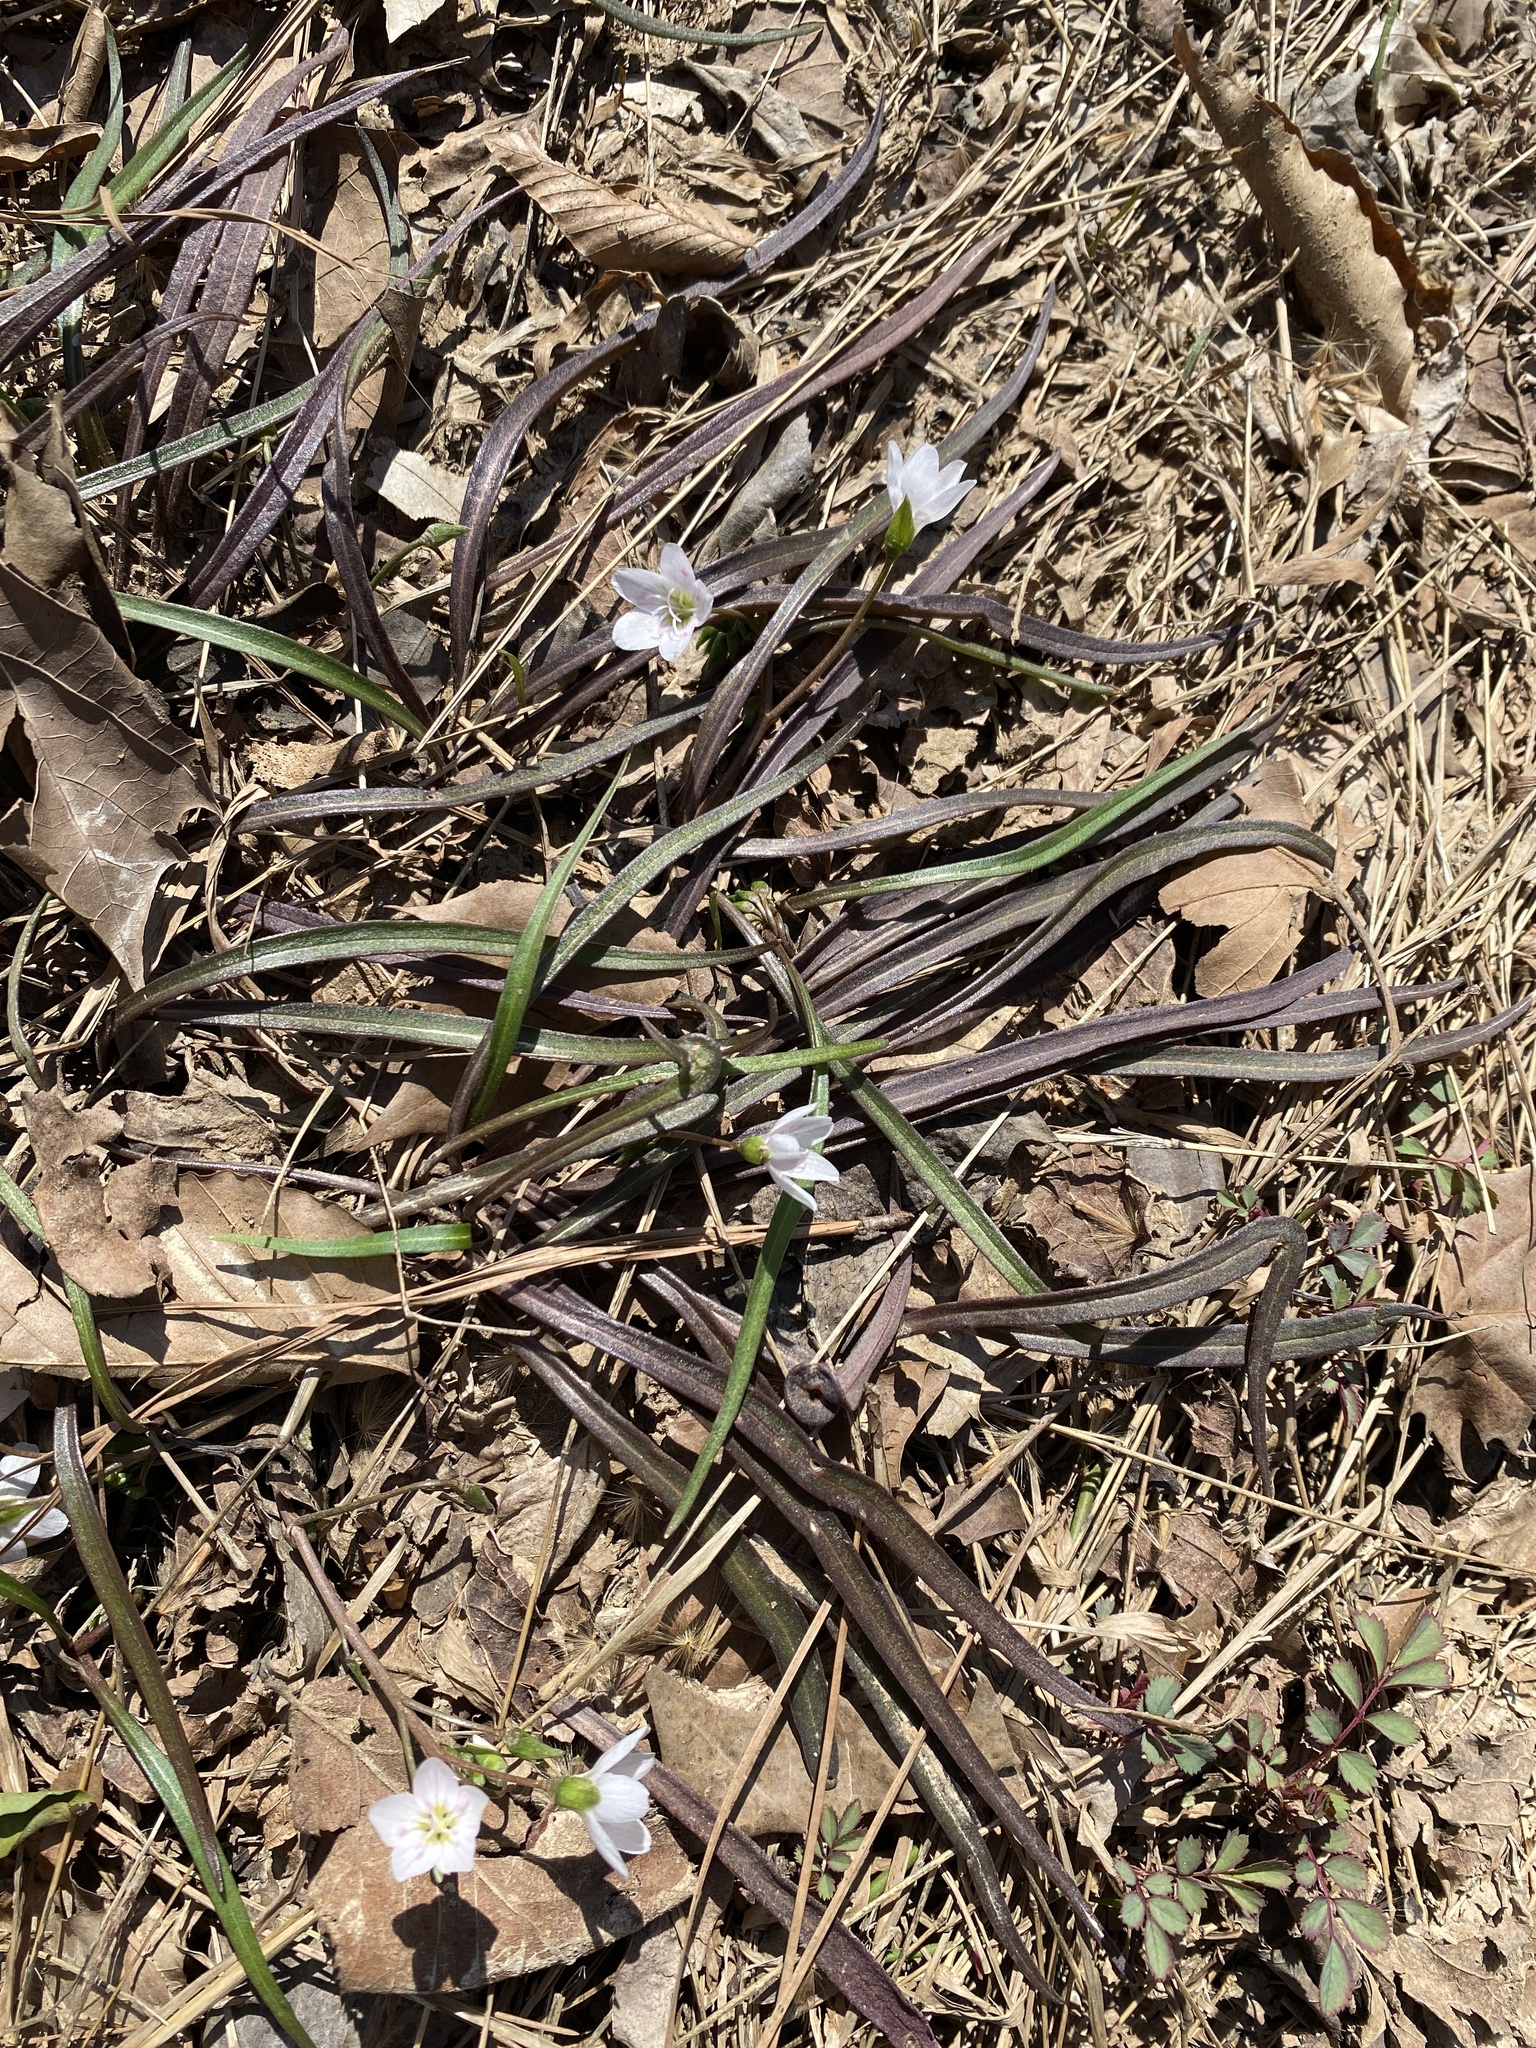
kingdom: Plantae
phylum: Tracheophyta
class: Magnoliopsida
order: Caryophyllales
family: Montiaceae
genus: Claytonia
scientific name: Claytonia virginica
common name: Virginia springbeauty
